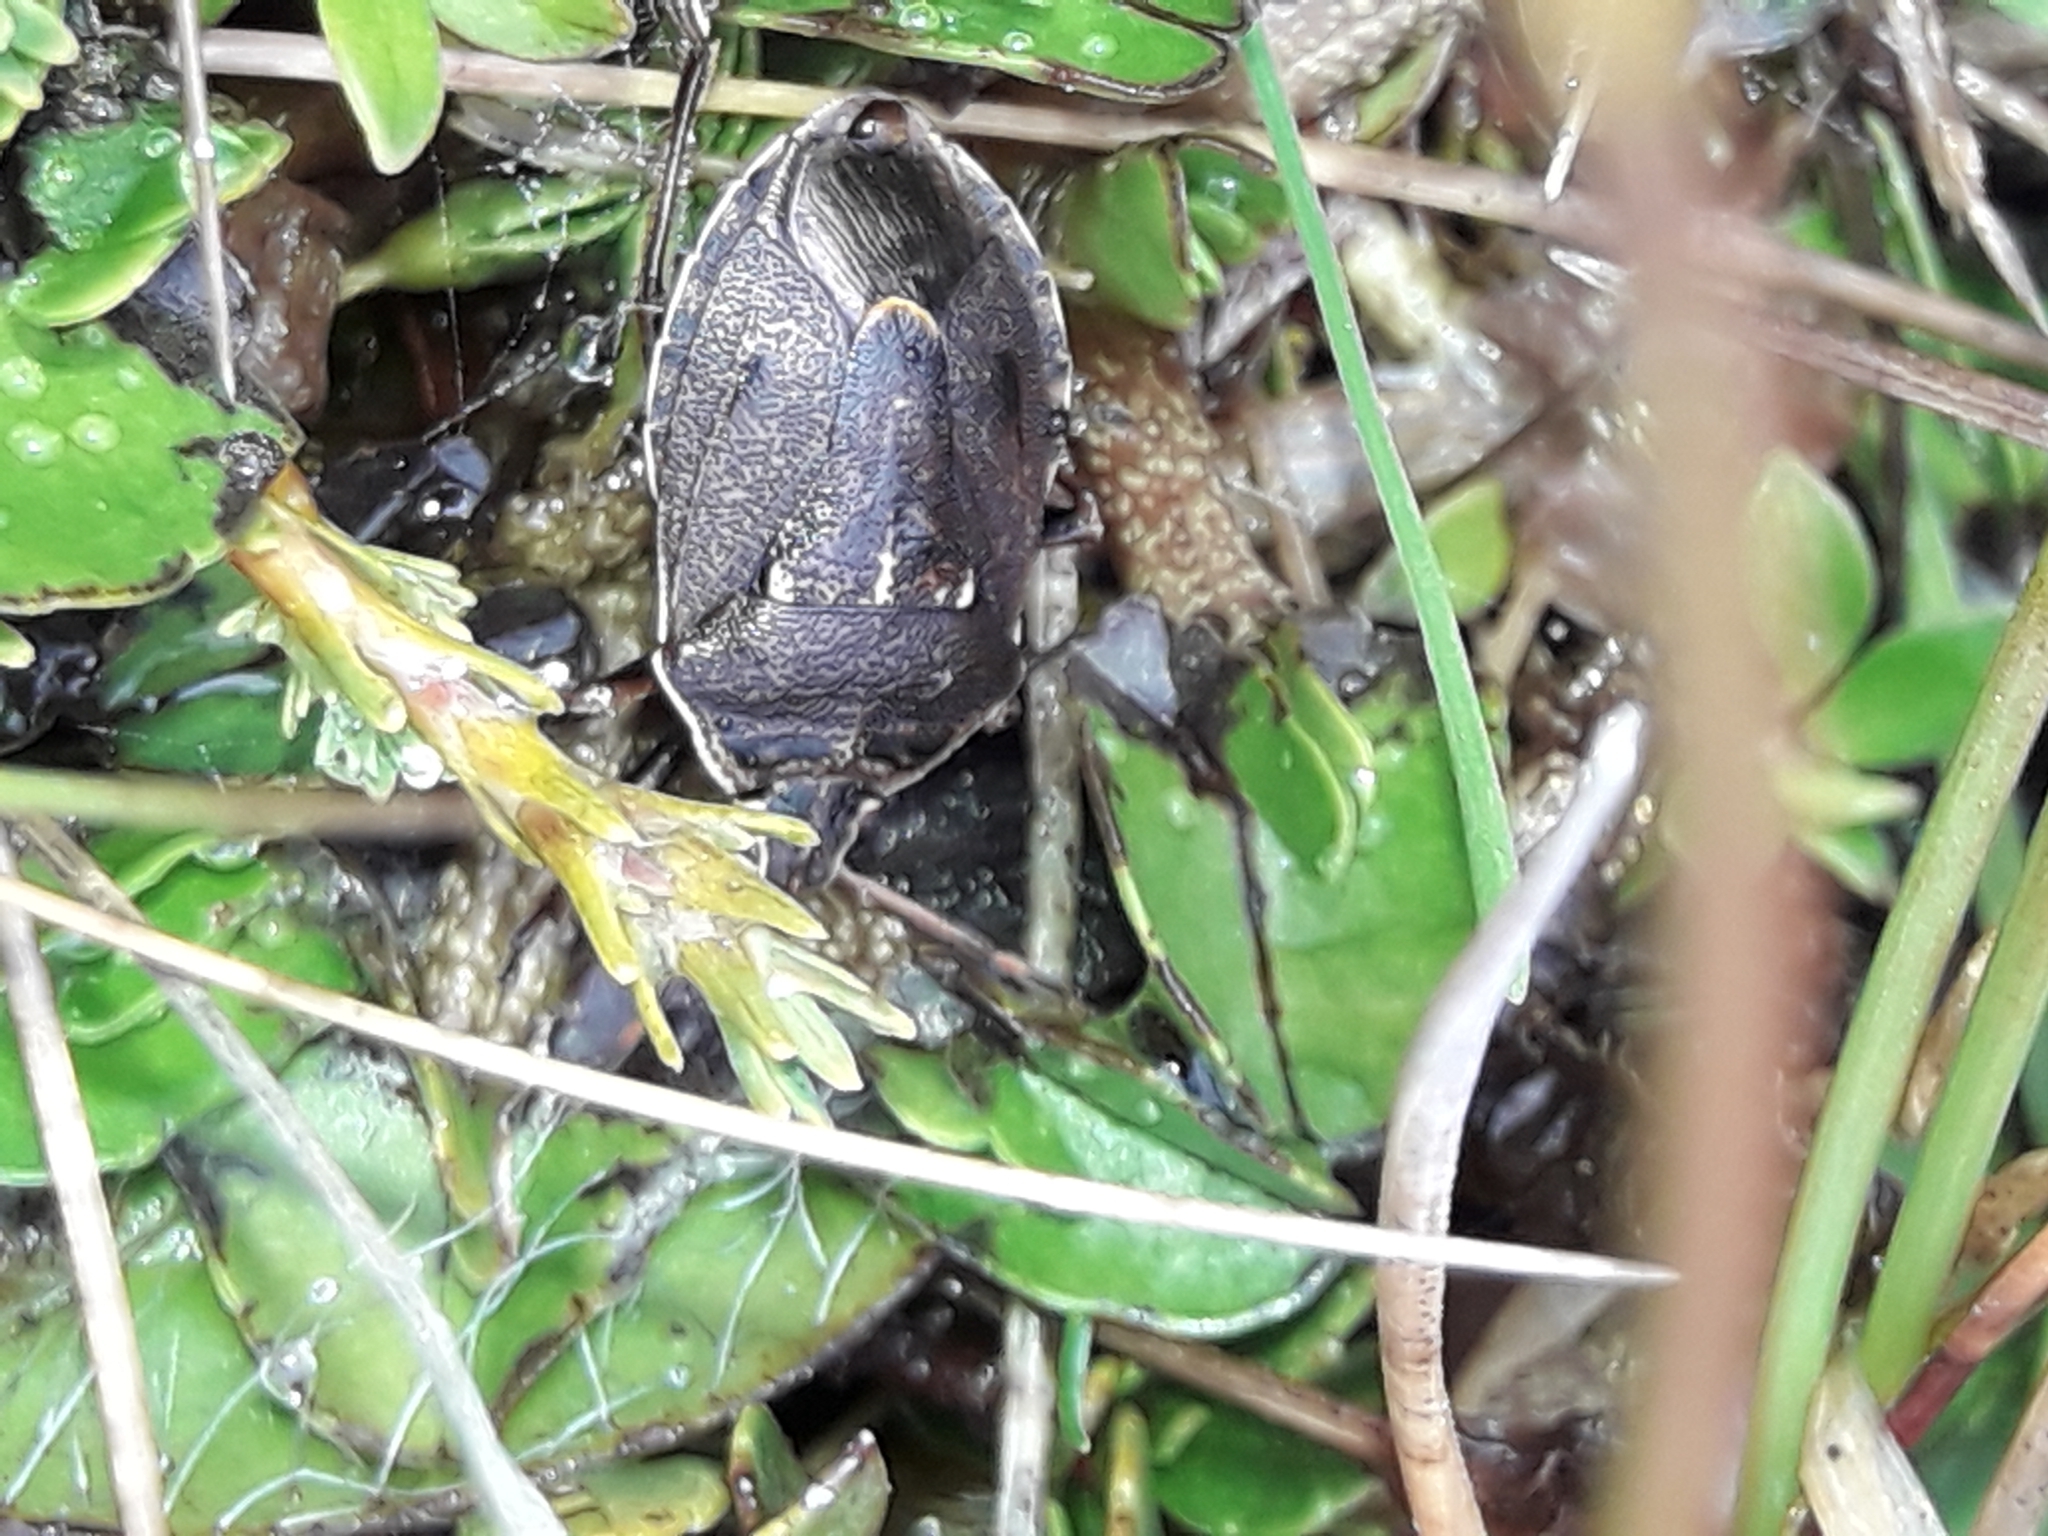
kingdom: Animalia
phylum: Arthropoda
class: Insecta
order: Hemiptera
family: Pentatomidae
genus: Cermatulus
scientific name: Cermatulus nasalis
